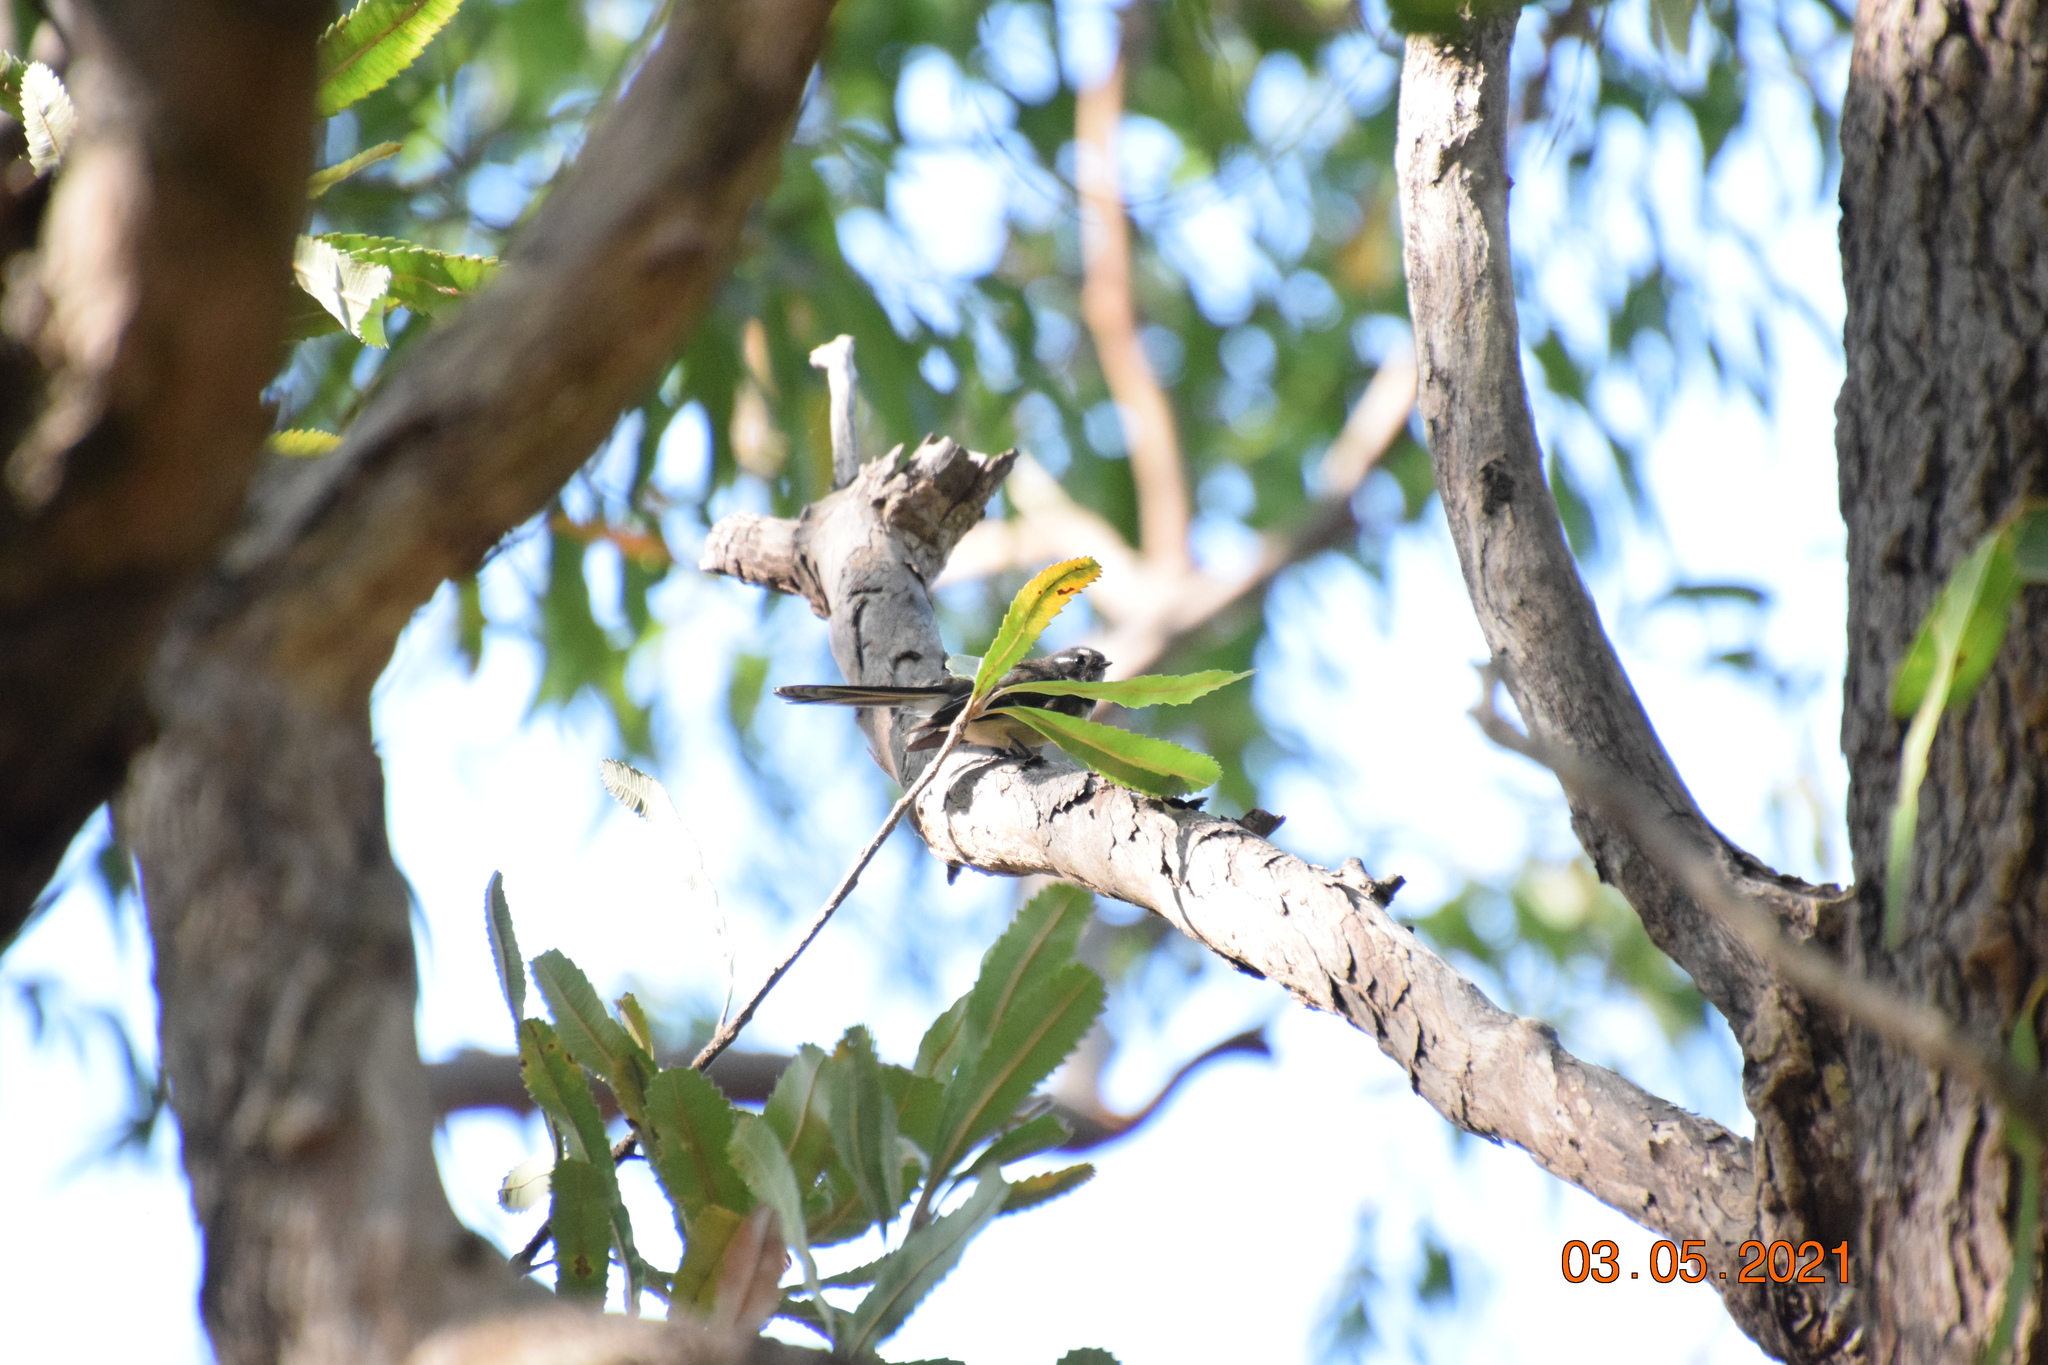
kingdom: Animalia
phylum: Chordata
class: Aves
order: Passeriformes
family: Rhipiduridae
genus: Rhipidura
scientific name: Rhipidura albiscapa
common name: Grey fantail
